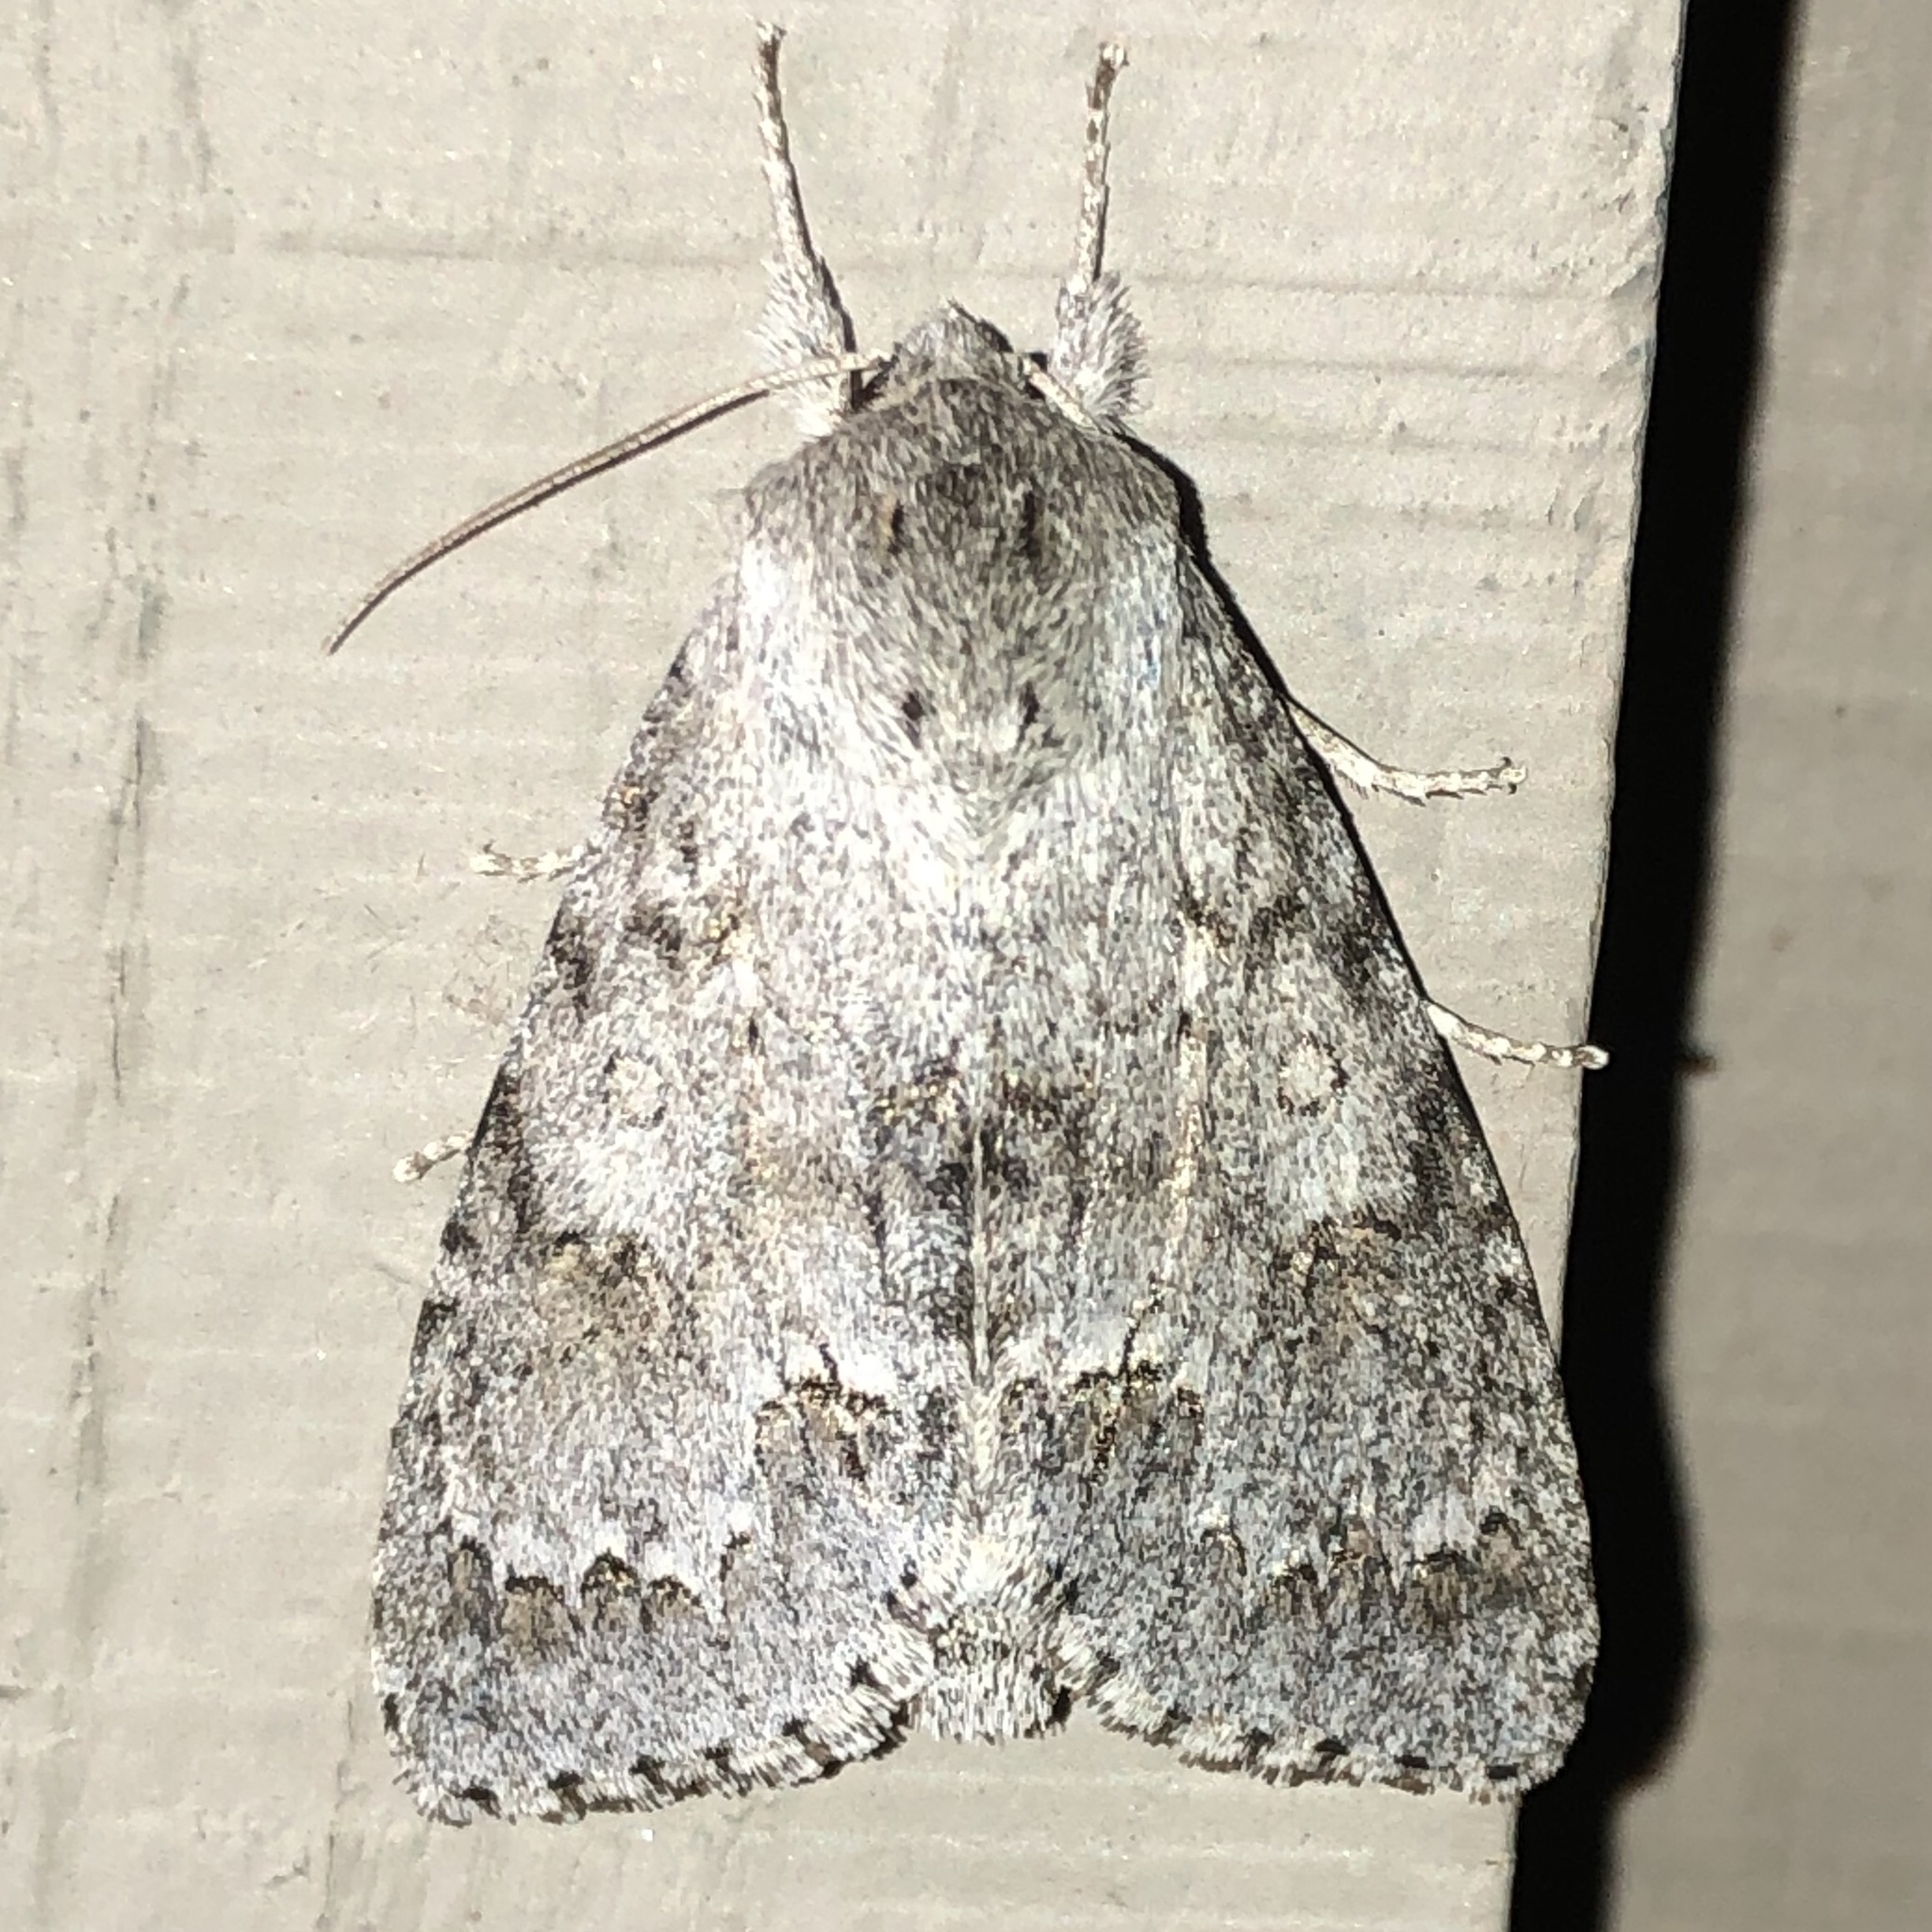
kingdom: Animalia
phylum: Arthropoda
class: Insecta
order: Lepidoptera
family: Noctuidae
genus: Acronicta
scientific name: Acronicta insita
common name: Large gray dagger
